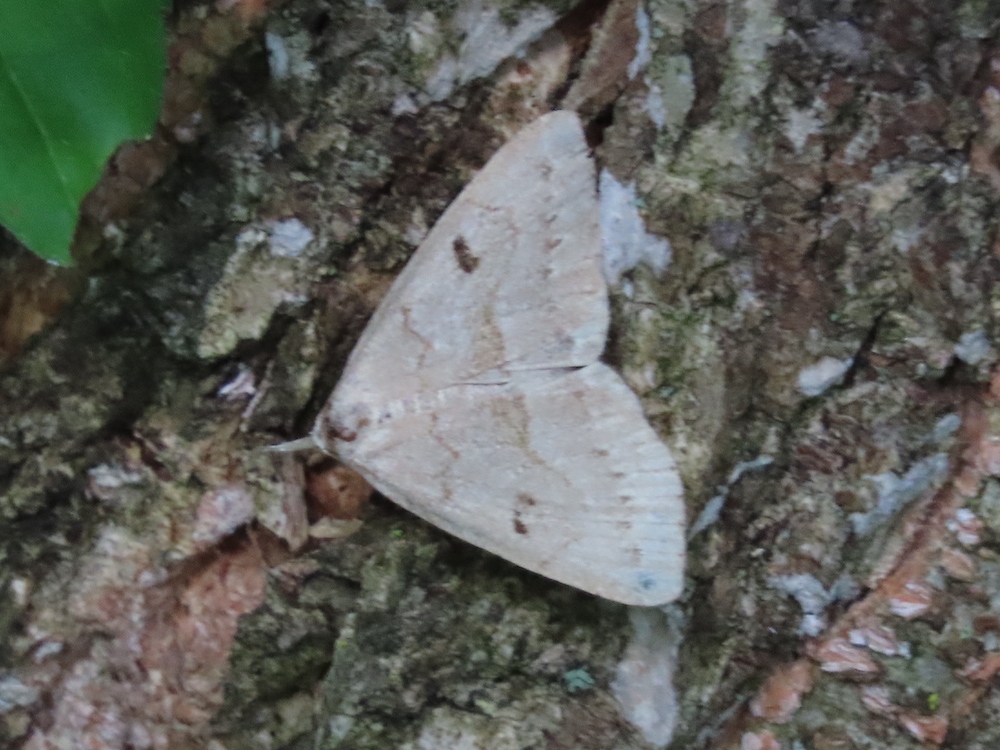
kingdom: Animalia
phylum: Arthropoda
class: Insecta
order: Lepidoptera
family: Erebidae
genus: Macrochilo
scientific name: Macrochilo morbidalis
